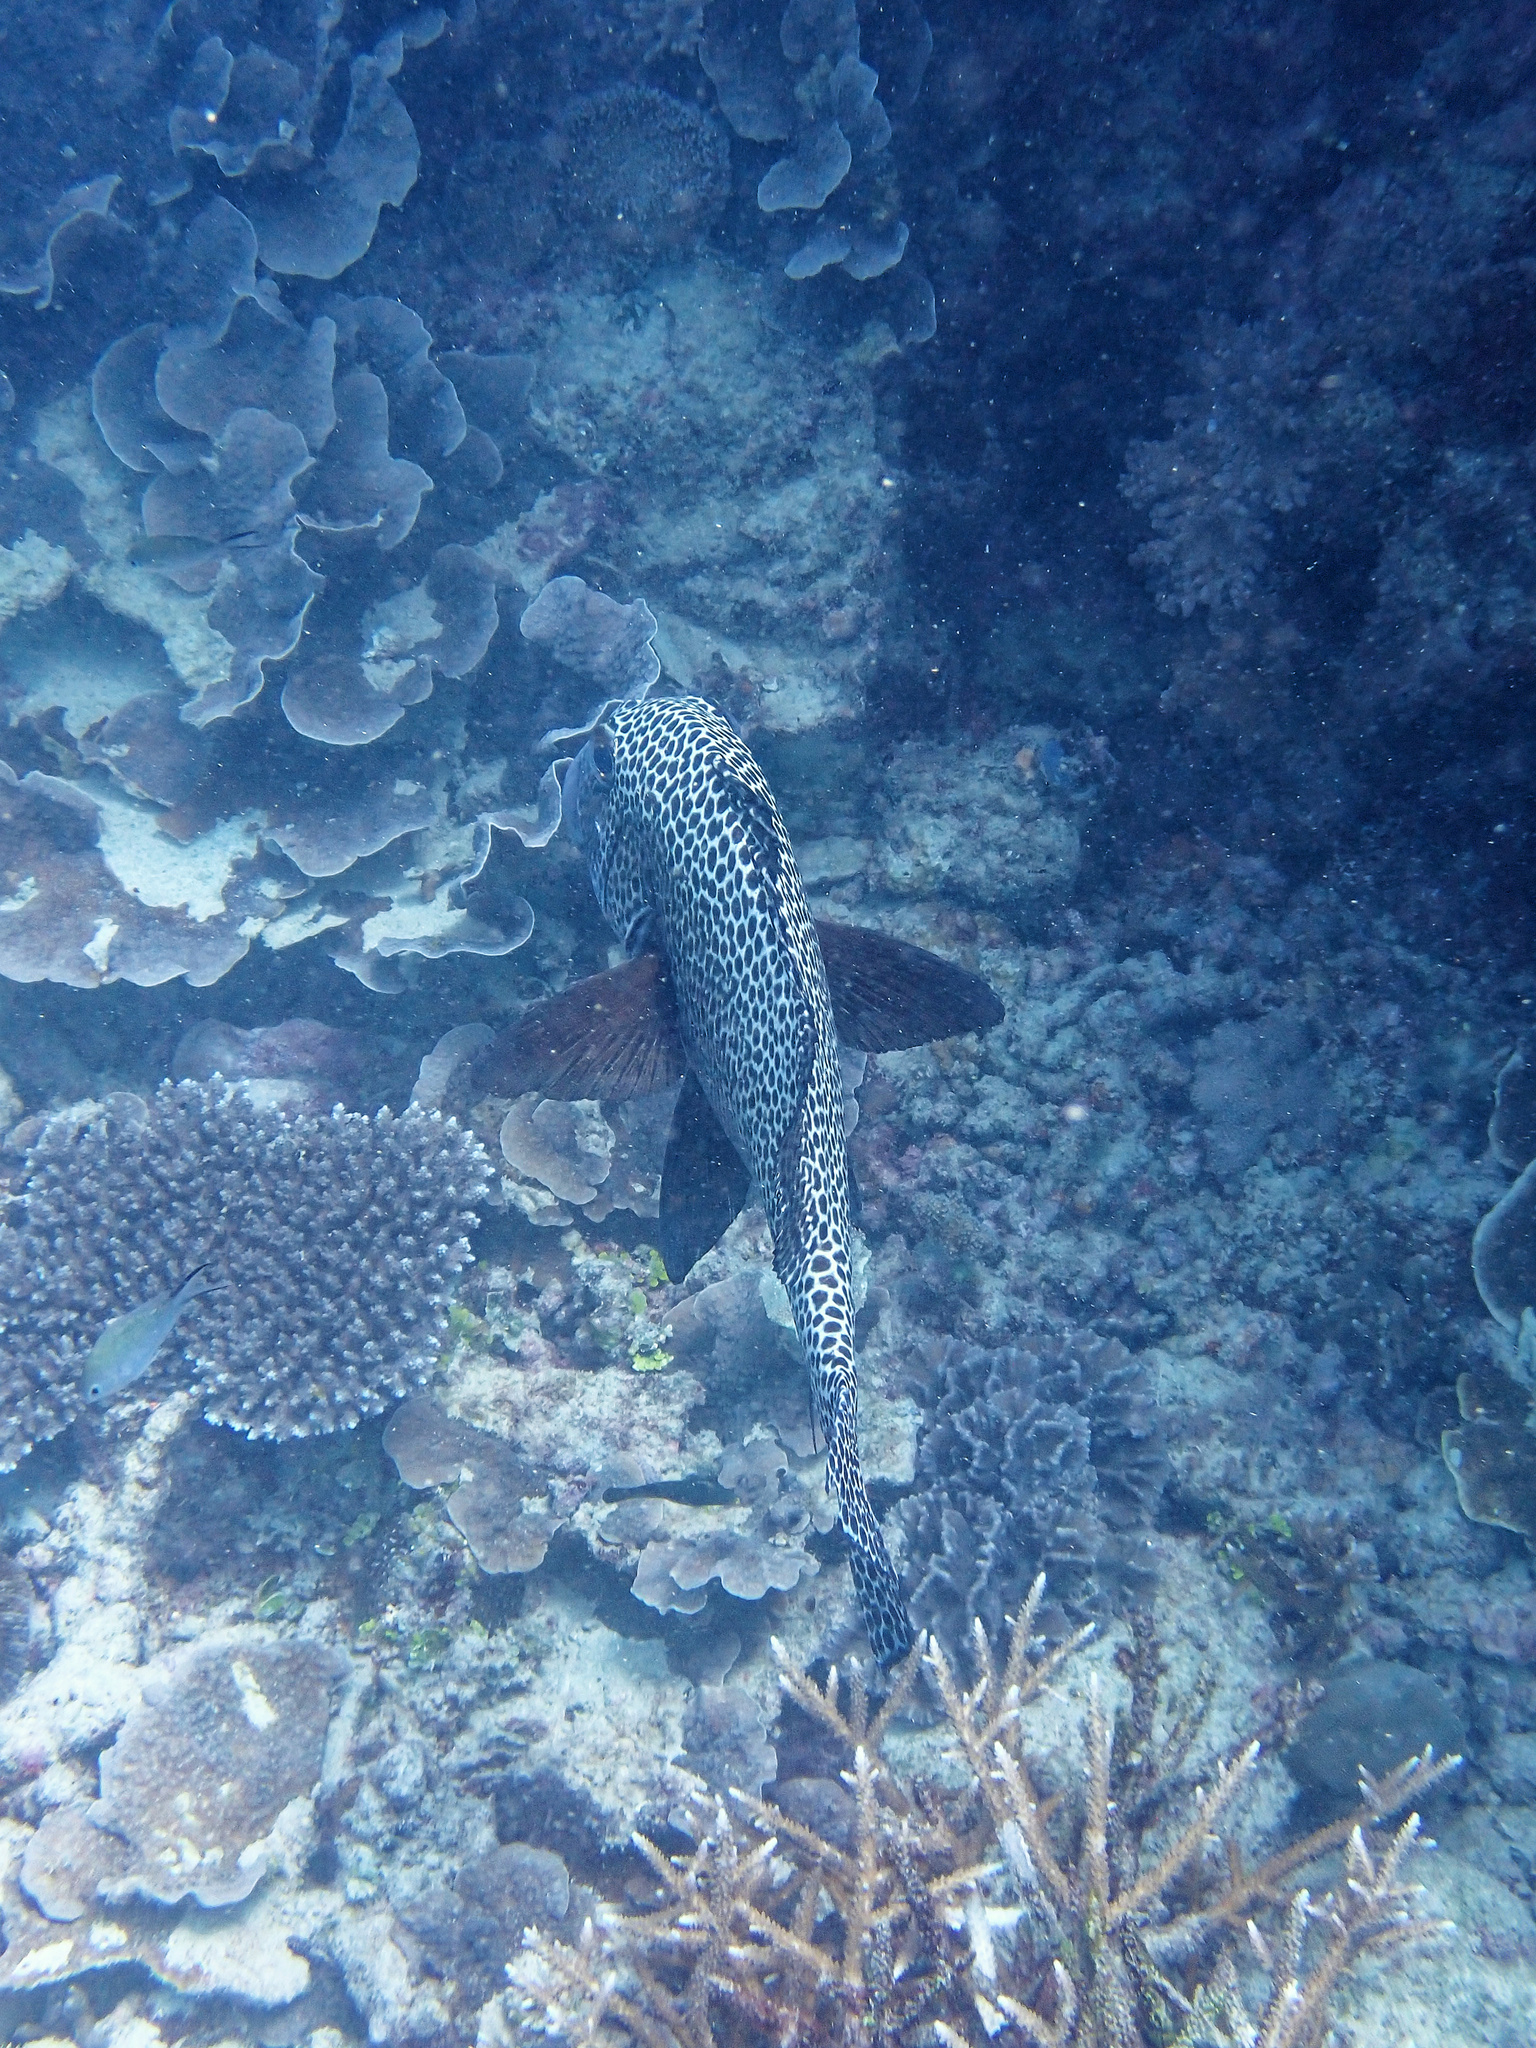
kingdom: Animalia
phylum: Chordata
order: Perciformes
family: Haemulidae
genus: Plectorhinchus
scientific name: Plectorhinchus chaetodonoides
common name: Harlequin sweetlips
